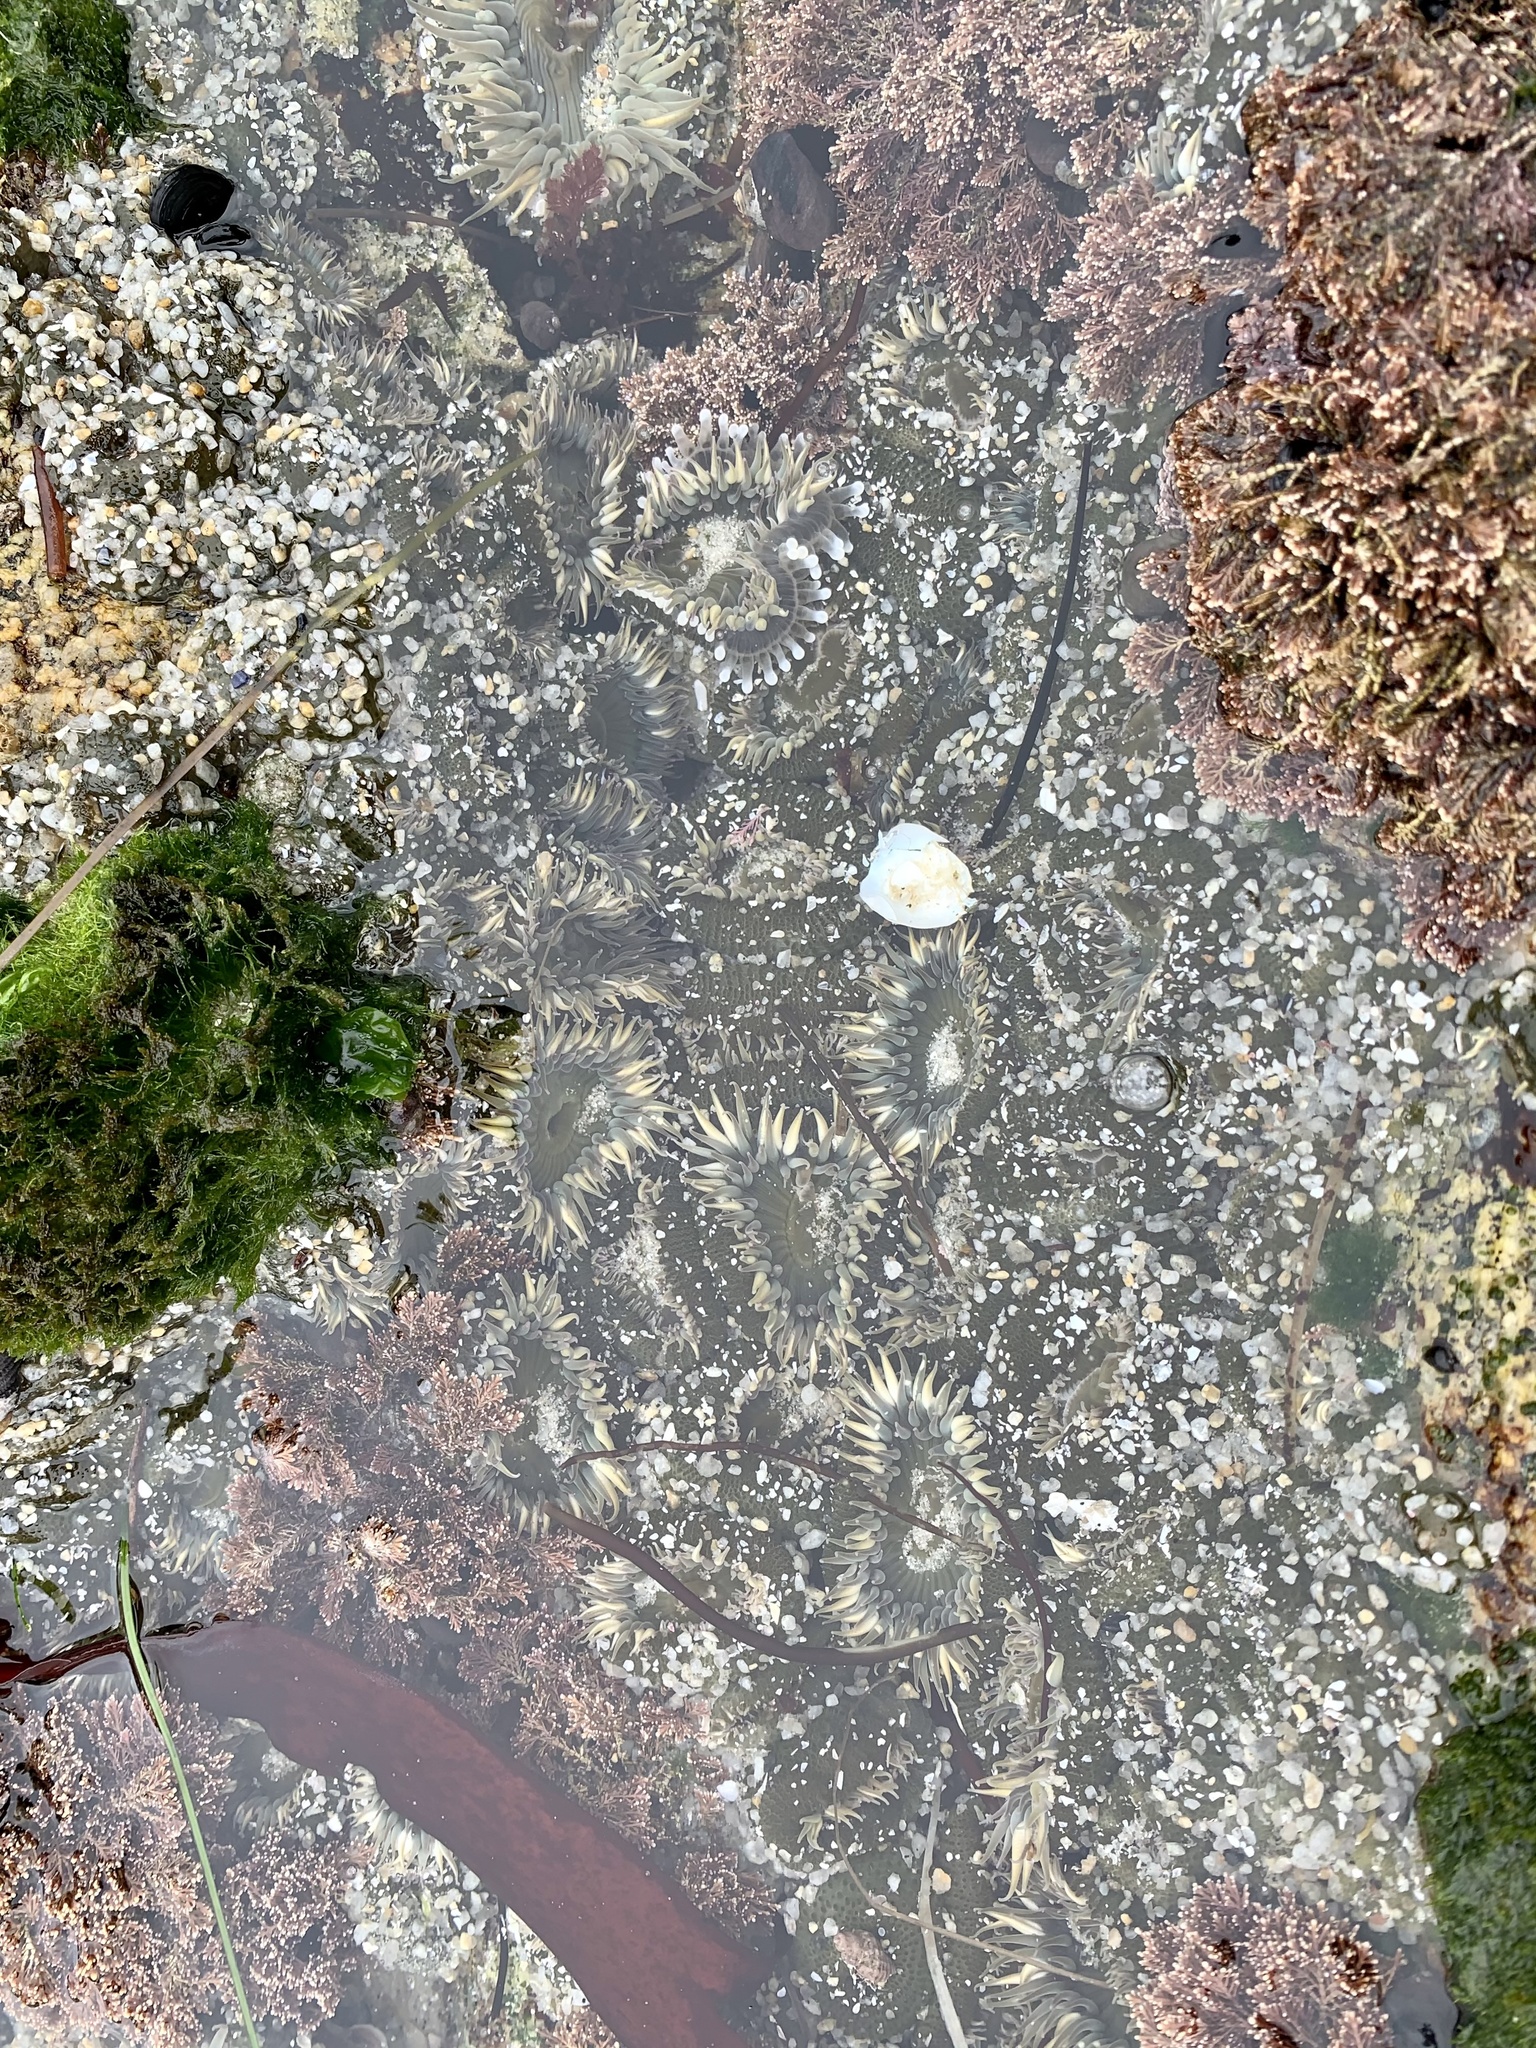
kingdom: Animalia
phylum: Cnidaria
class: Anthozoa
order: Actiniaria
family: Actiniidae
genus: Anthopleura
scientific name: Anthopleura elegantissima
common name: Clonal anemone
